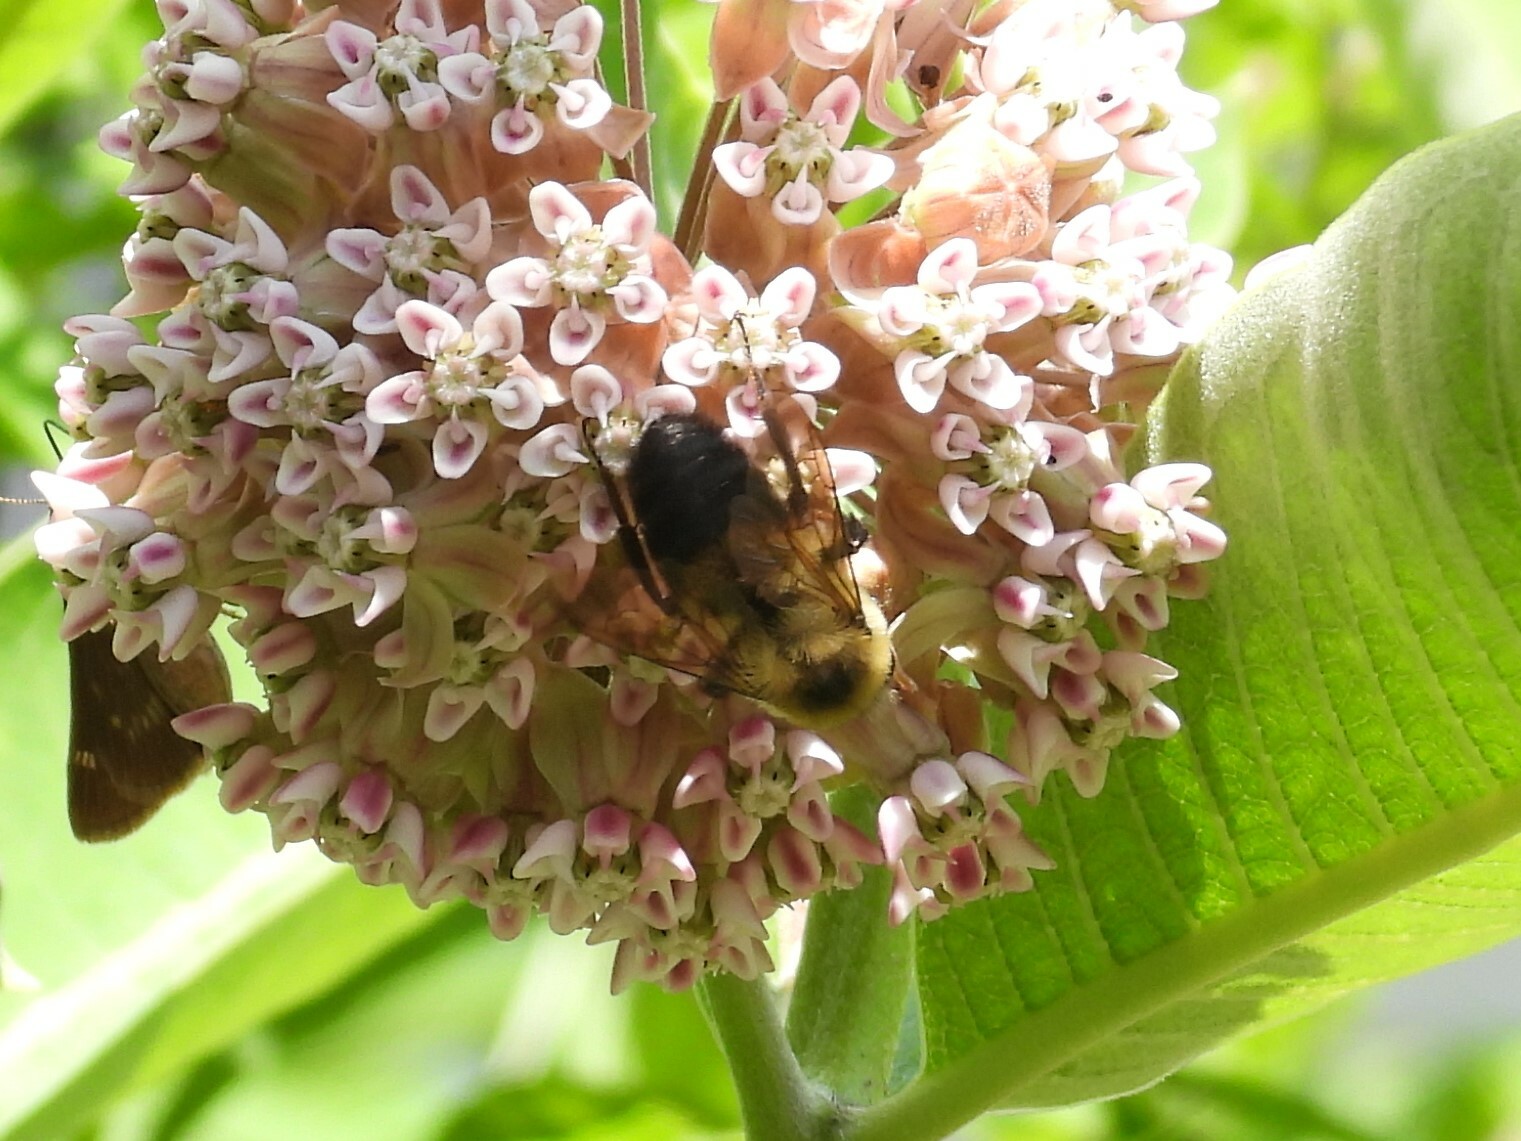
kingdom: Animalia
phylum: Arthropoda
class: Insecta
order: Hymenoptera
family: Apidae
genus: Bombus
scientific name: Bombus griseocollis
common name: Brown-belted bumble bee
